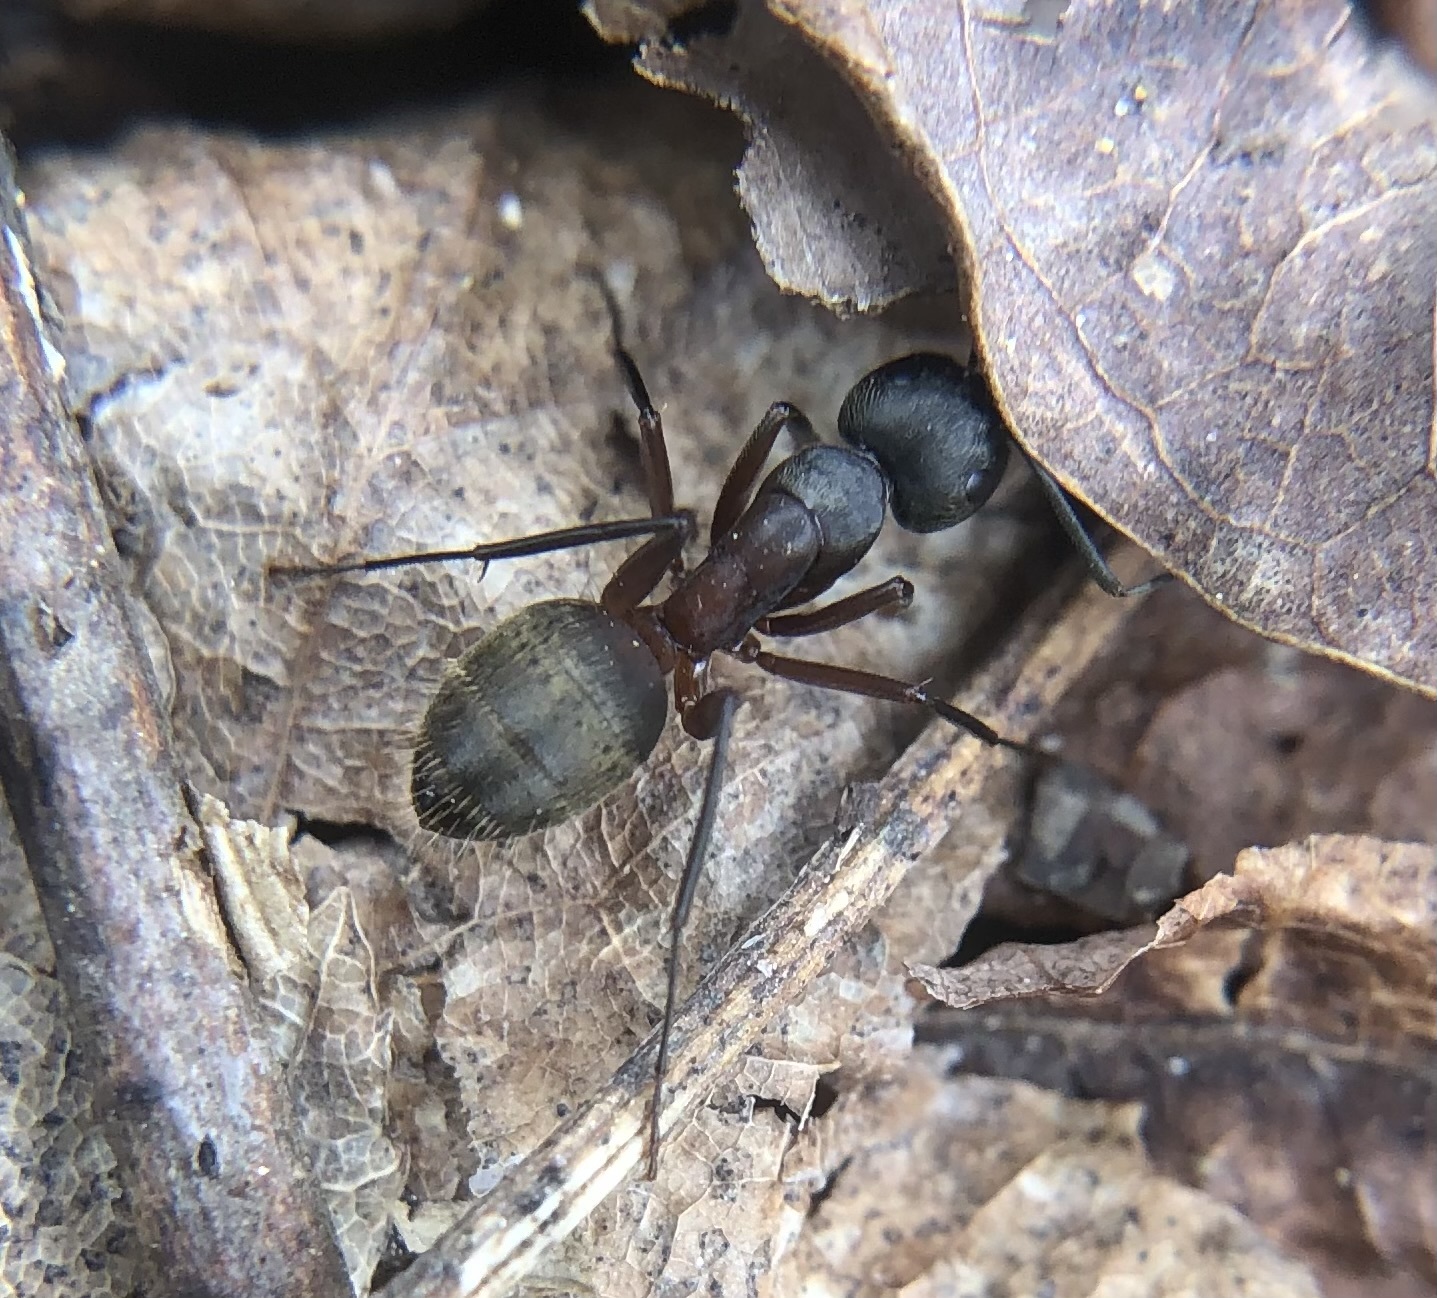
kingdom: Animalia
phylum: Arthropoda
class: Insecta
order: Hymenoptera
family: Formicidae
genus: Camponotus
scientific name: Camponotus chromaiodes
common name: Red carpenter ant
